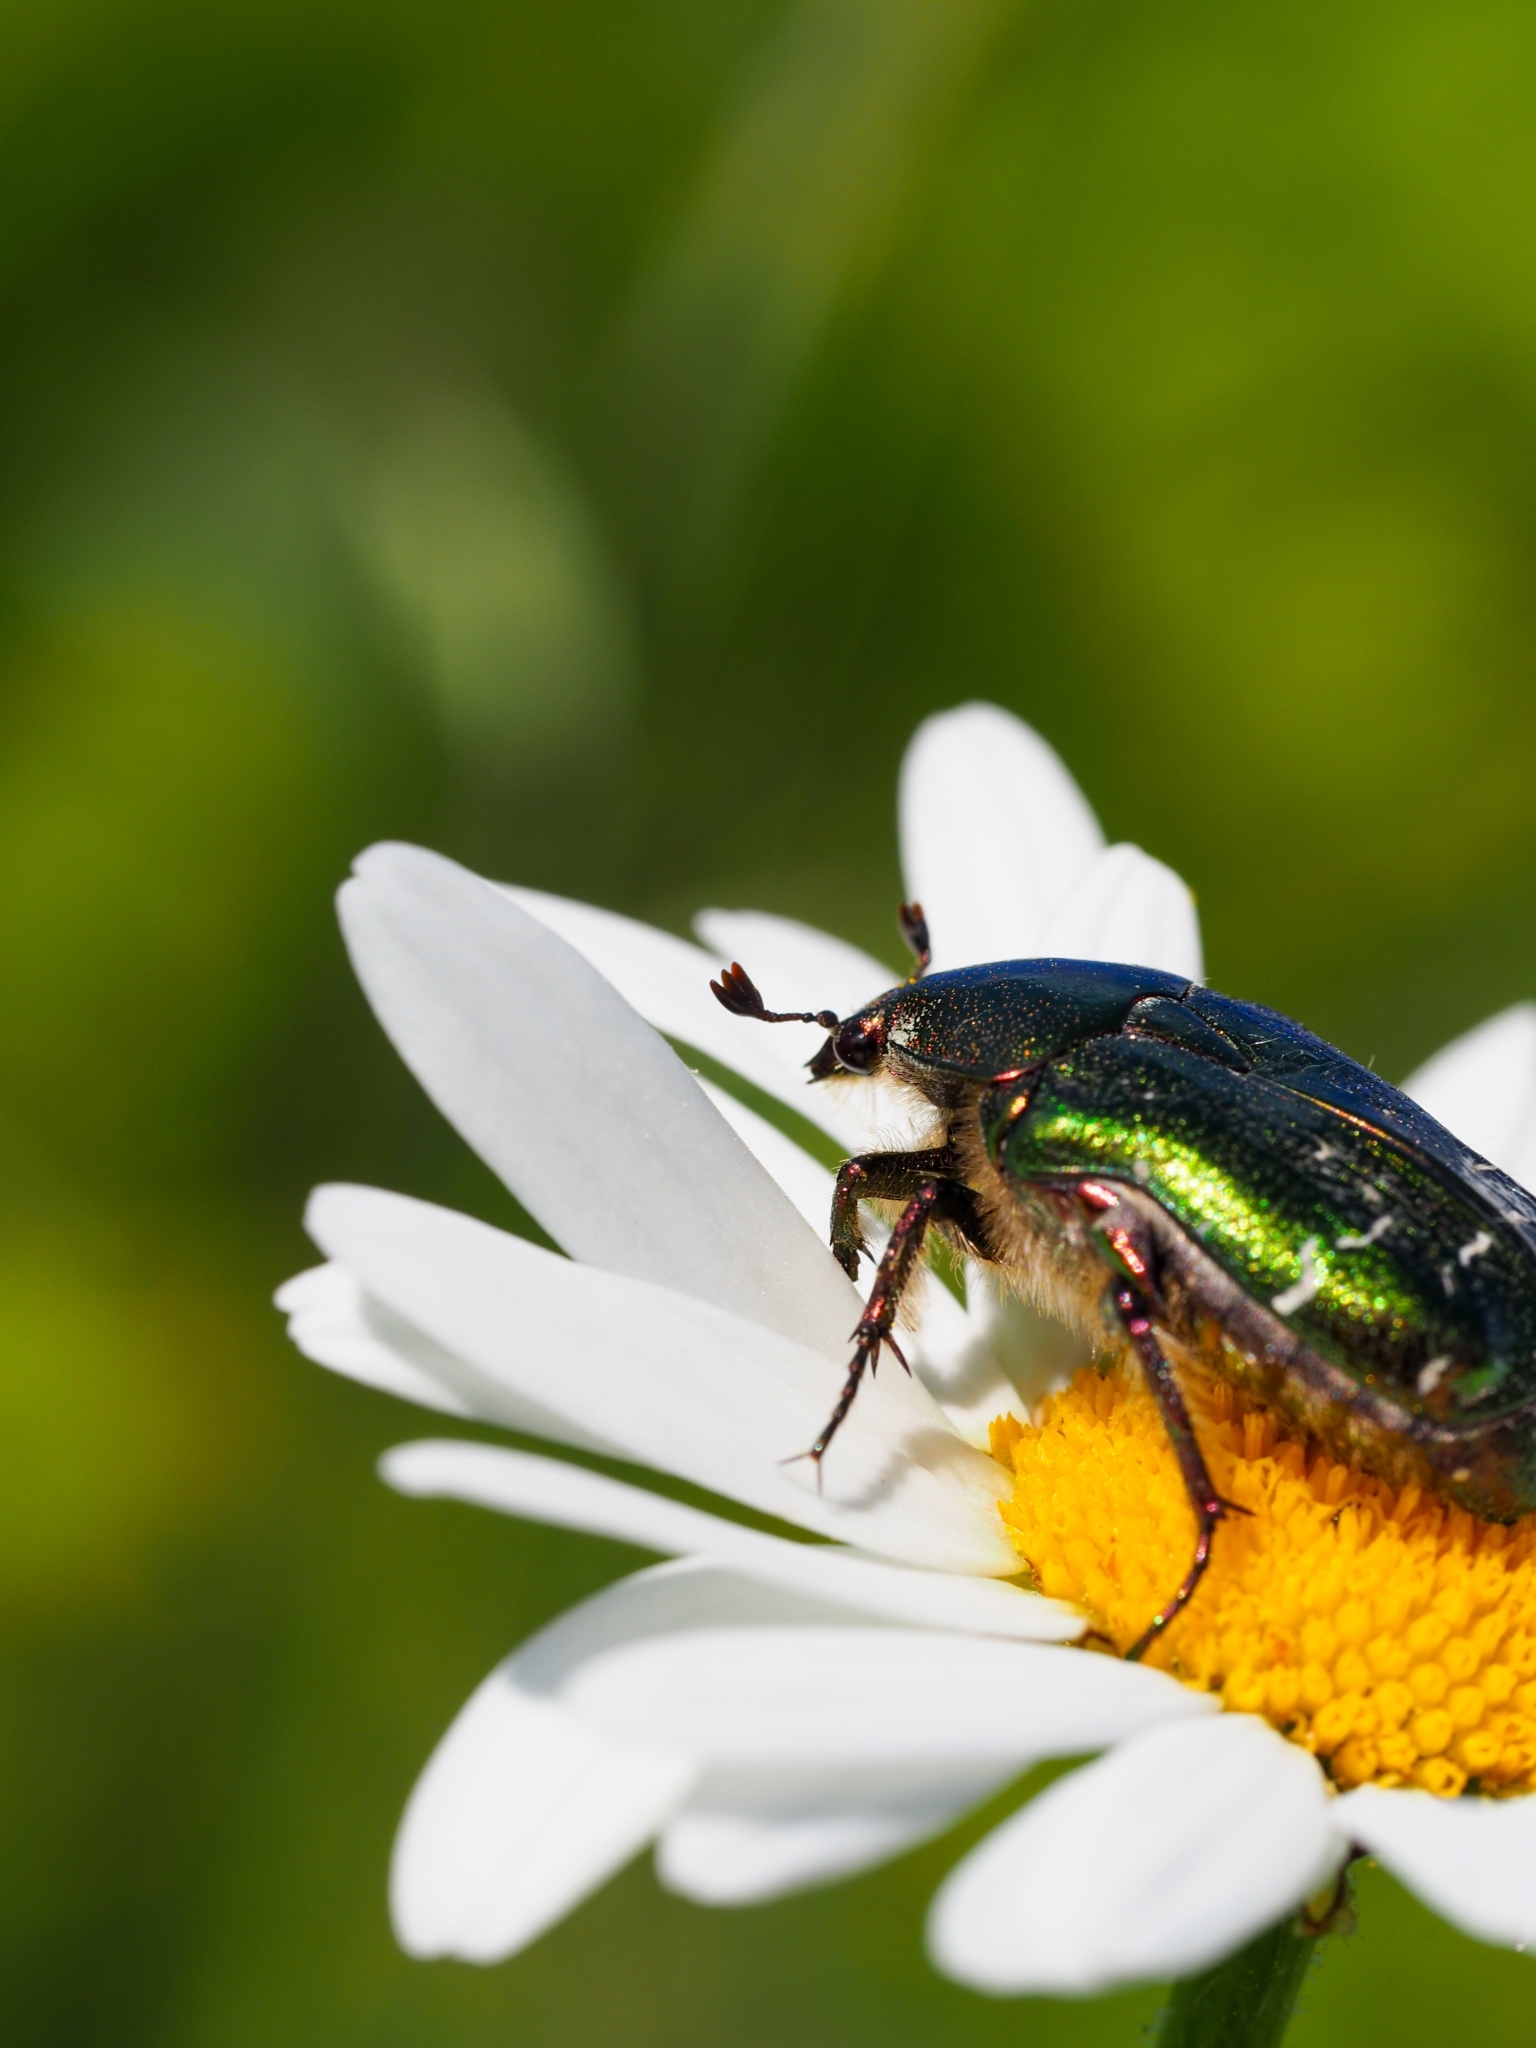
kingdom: Animalia
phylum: Arthropoda
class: Insecta
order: Coleoptera
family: Scarabaeidae
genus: Cetonia
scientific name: Cetonia aurata
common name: Rose chafer
